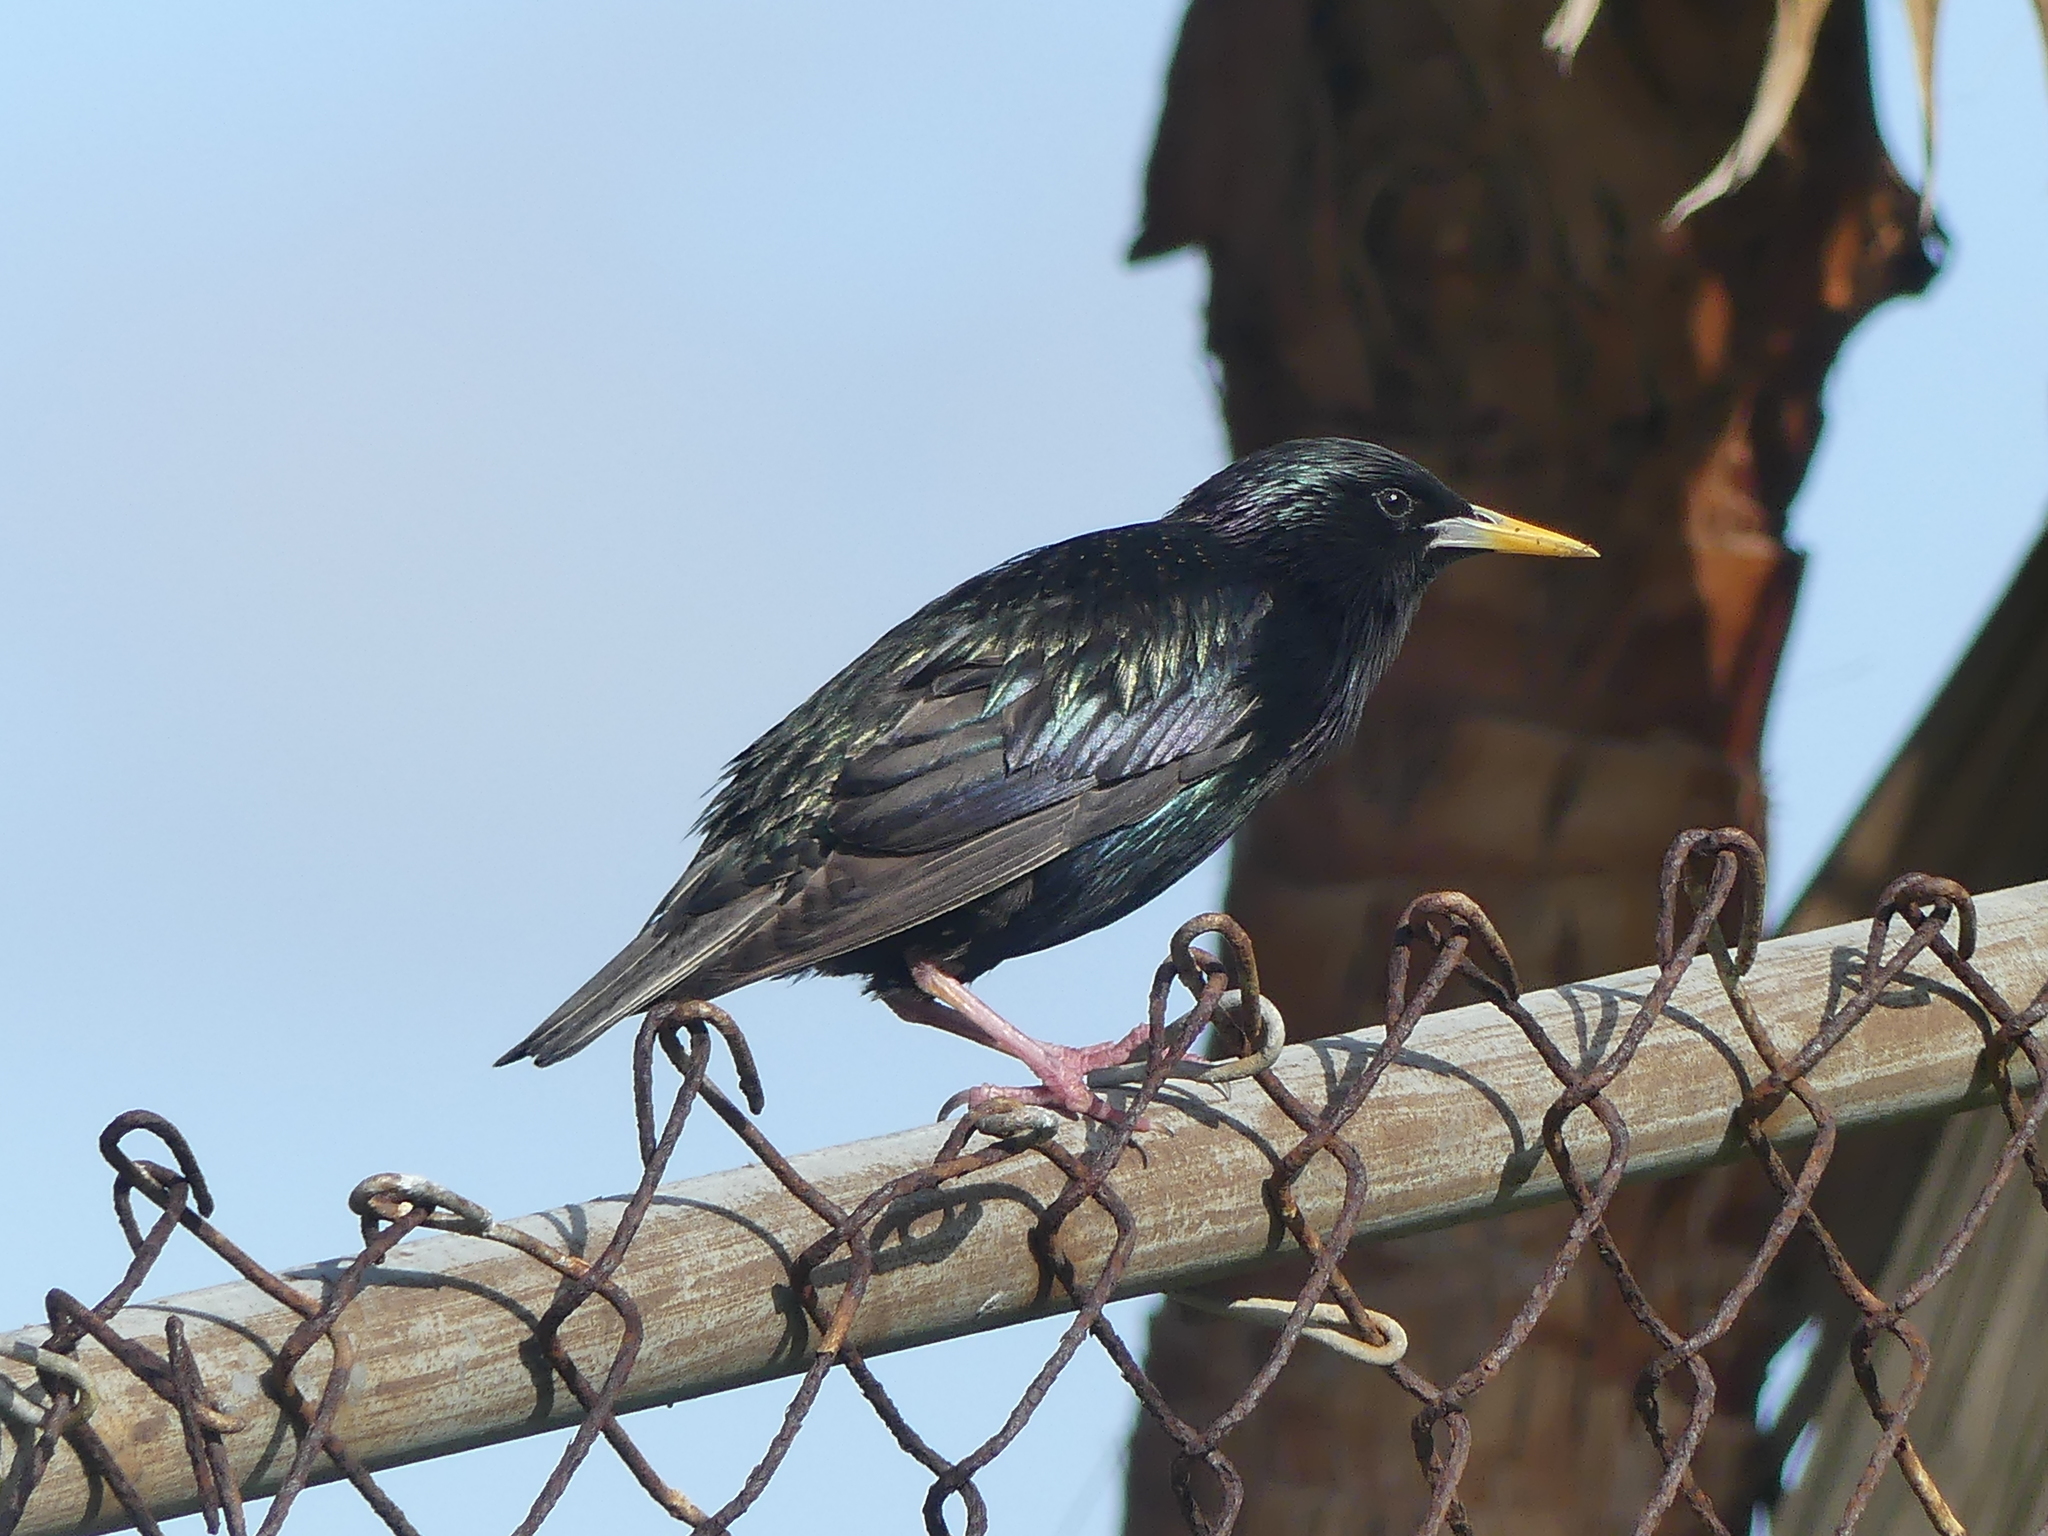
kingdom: Animalia
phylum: Chordata
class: Aves
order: Passeriformes
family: Sturnidae
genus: Sturnus
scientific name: Sturnus vulgaris
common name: Common starling
